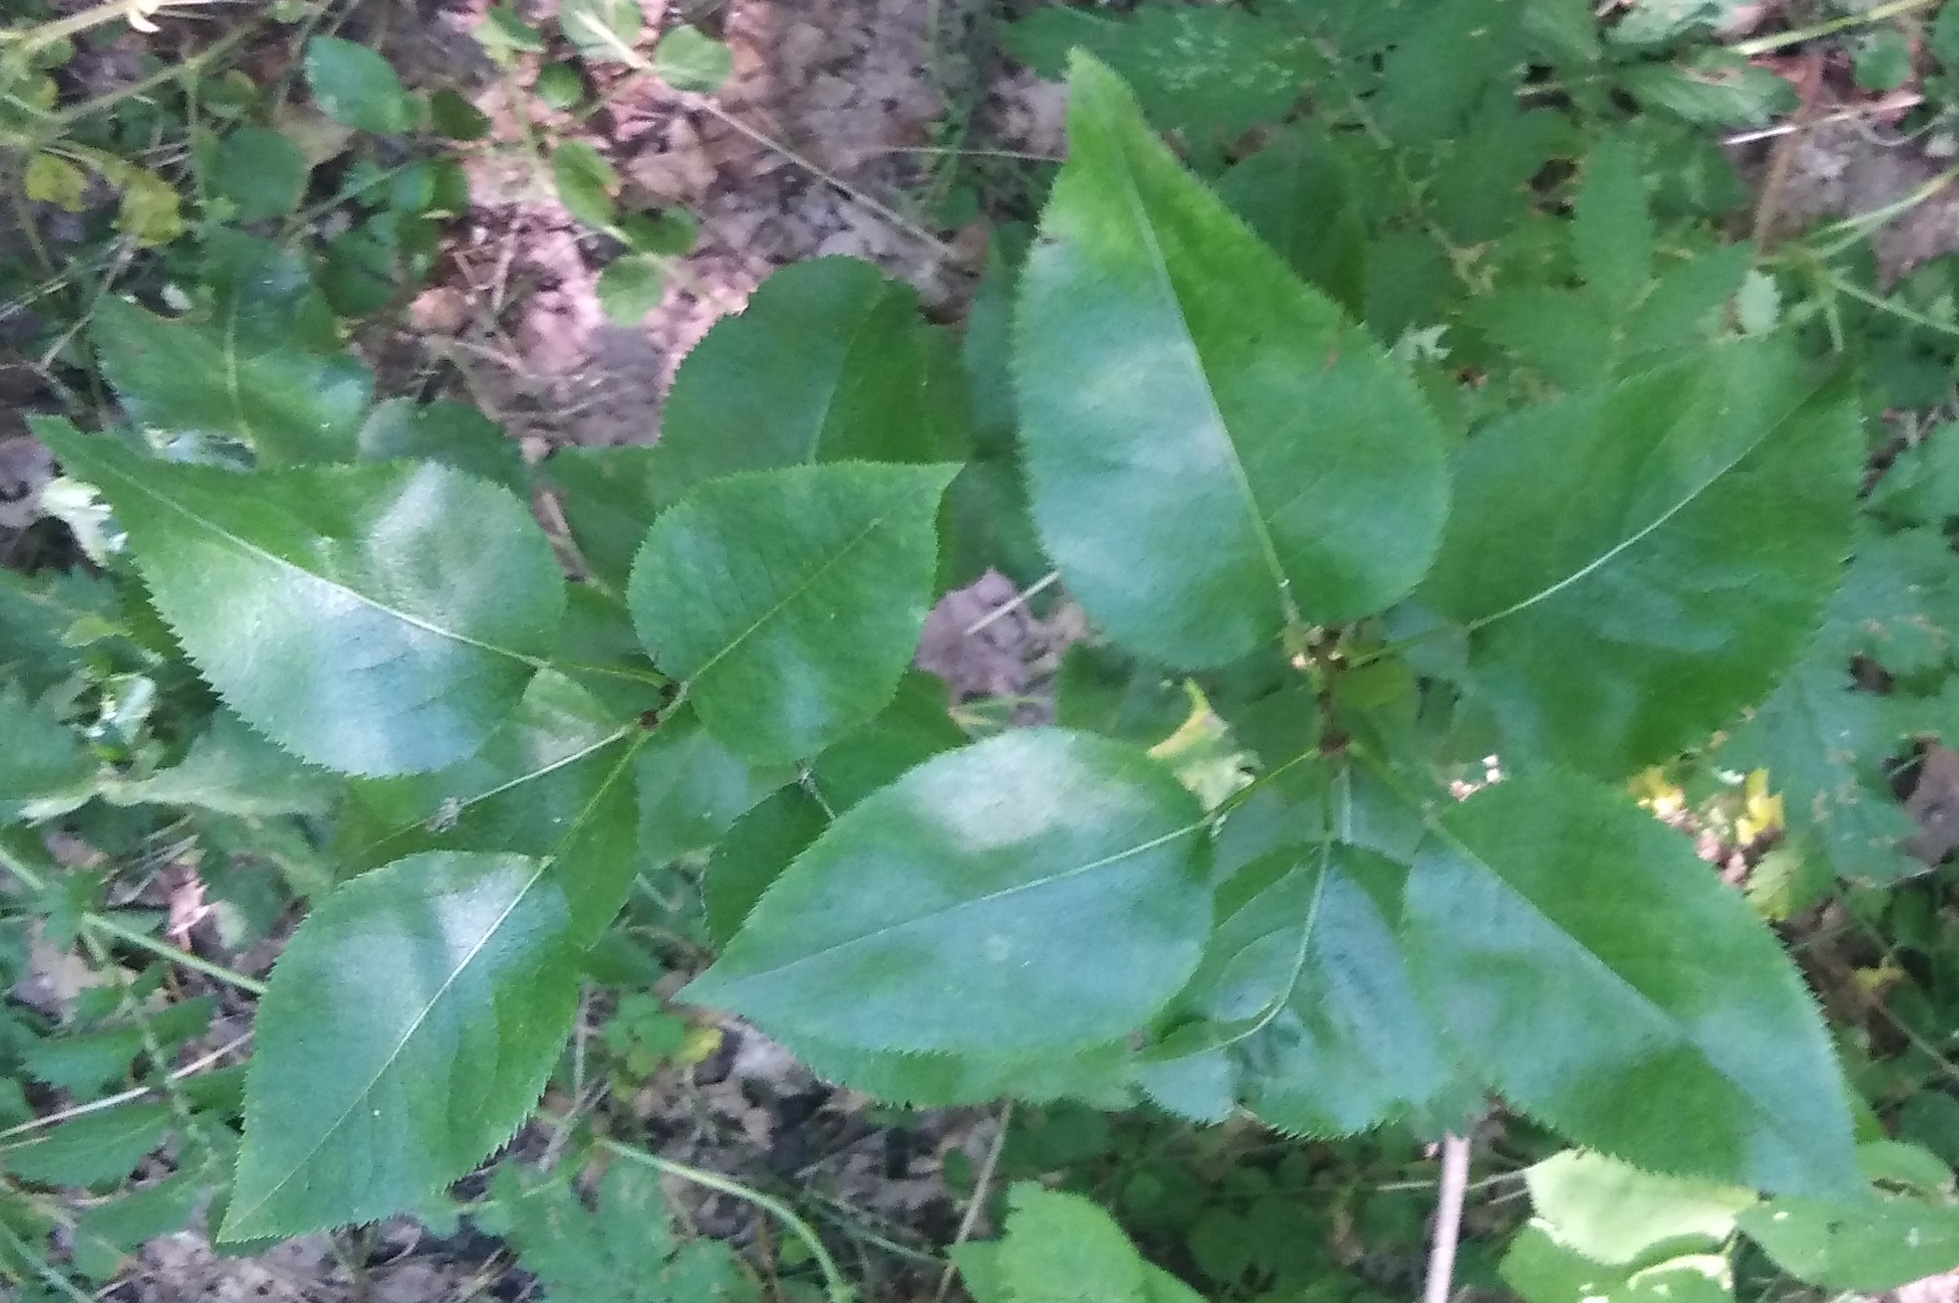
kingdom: Plantae
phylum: Tracheophyta
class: Magnoliopsida
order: Rosales
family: Rosaceae
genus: Pyrus
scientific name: Pyrus communis
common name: Pear
